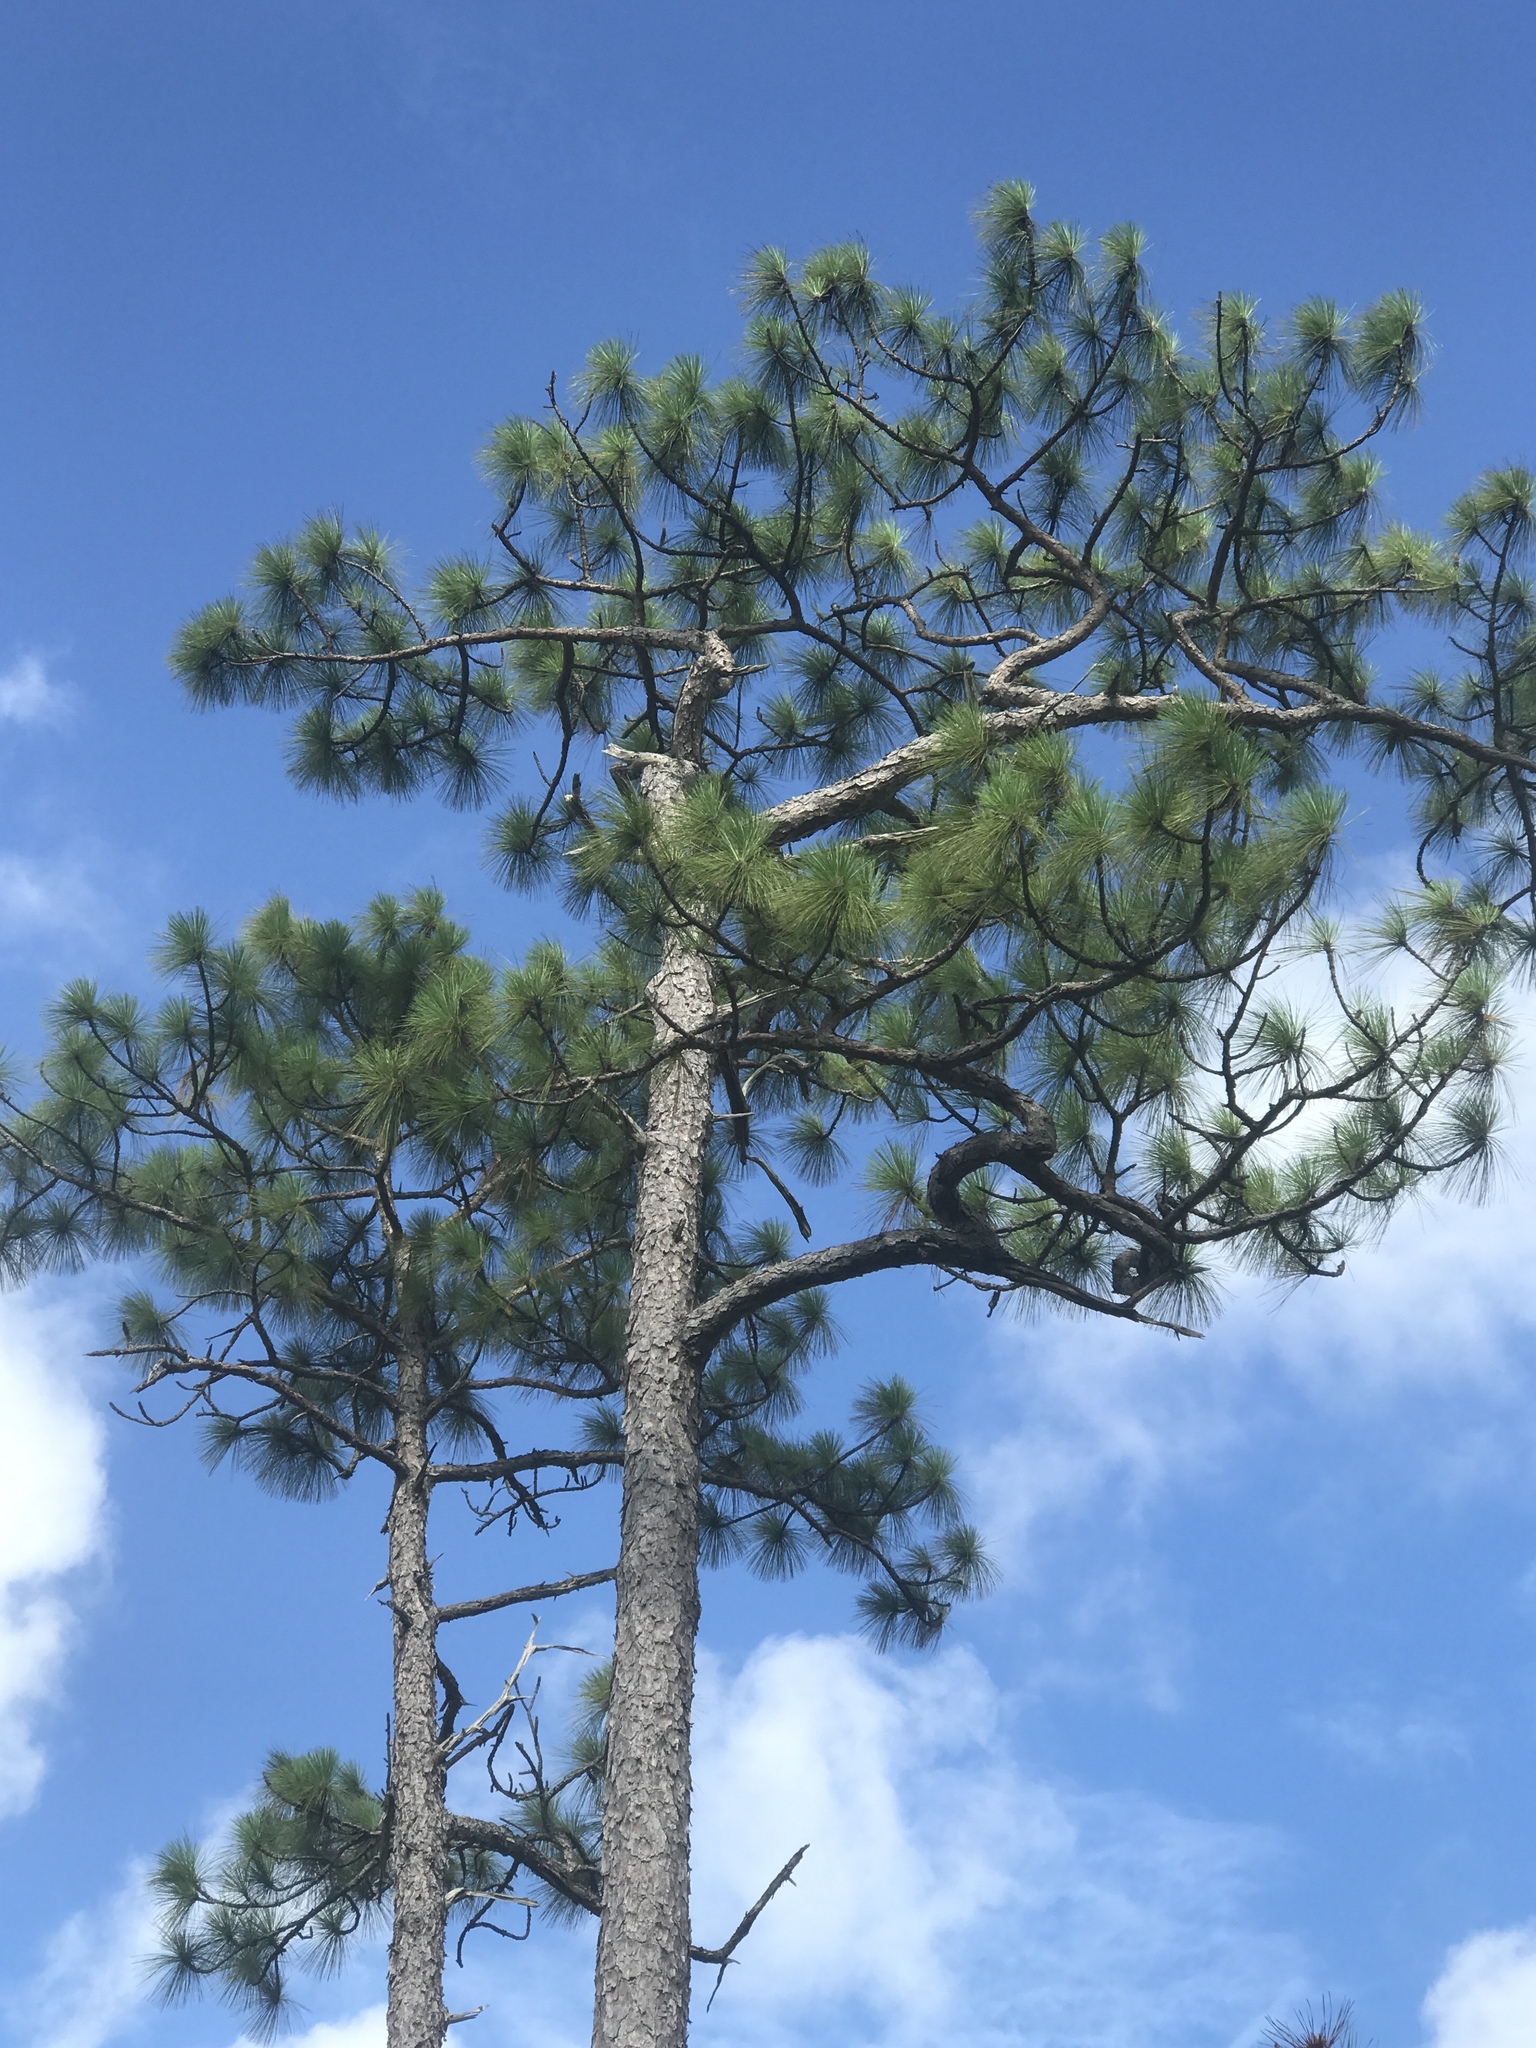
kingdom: Plantae
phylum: Tracheophyta
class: Pinopsida
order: Pinales
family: Pinaceae
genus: Pinus
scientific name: Pinus palustris
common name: Longleaf pine
